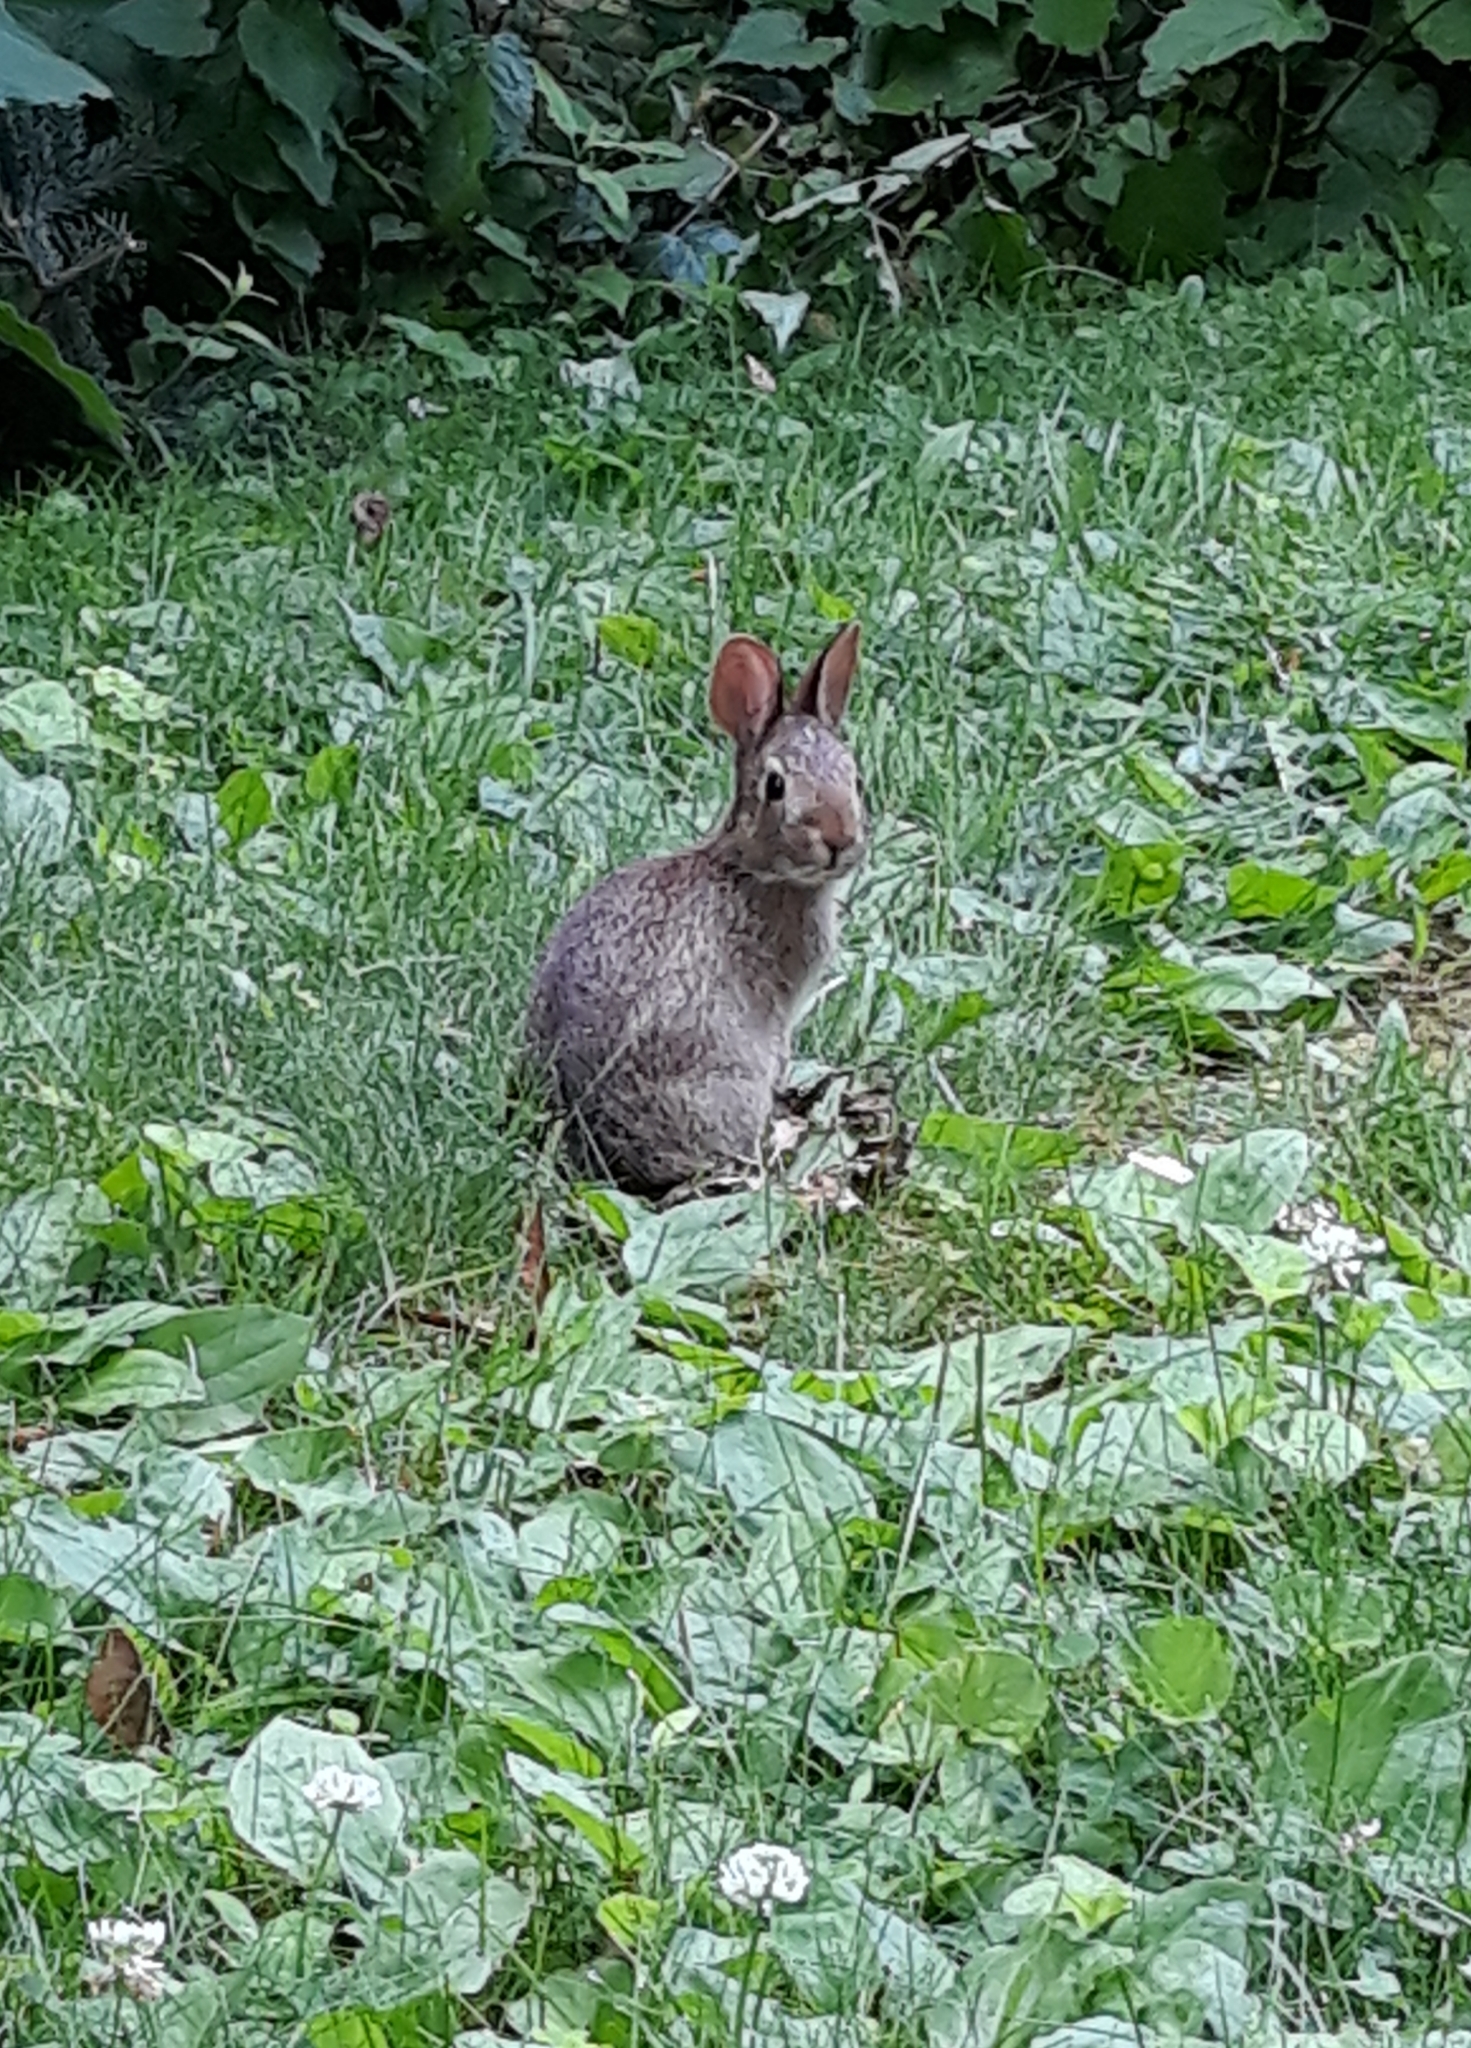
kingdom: Animalia
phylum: Chordata
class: Mammalia
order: Lagomorpha
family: Leporidae
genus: Sylvilagus
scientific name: Sylvilagus floridanus
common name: Eastern cottontail
